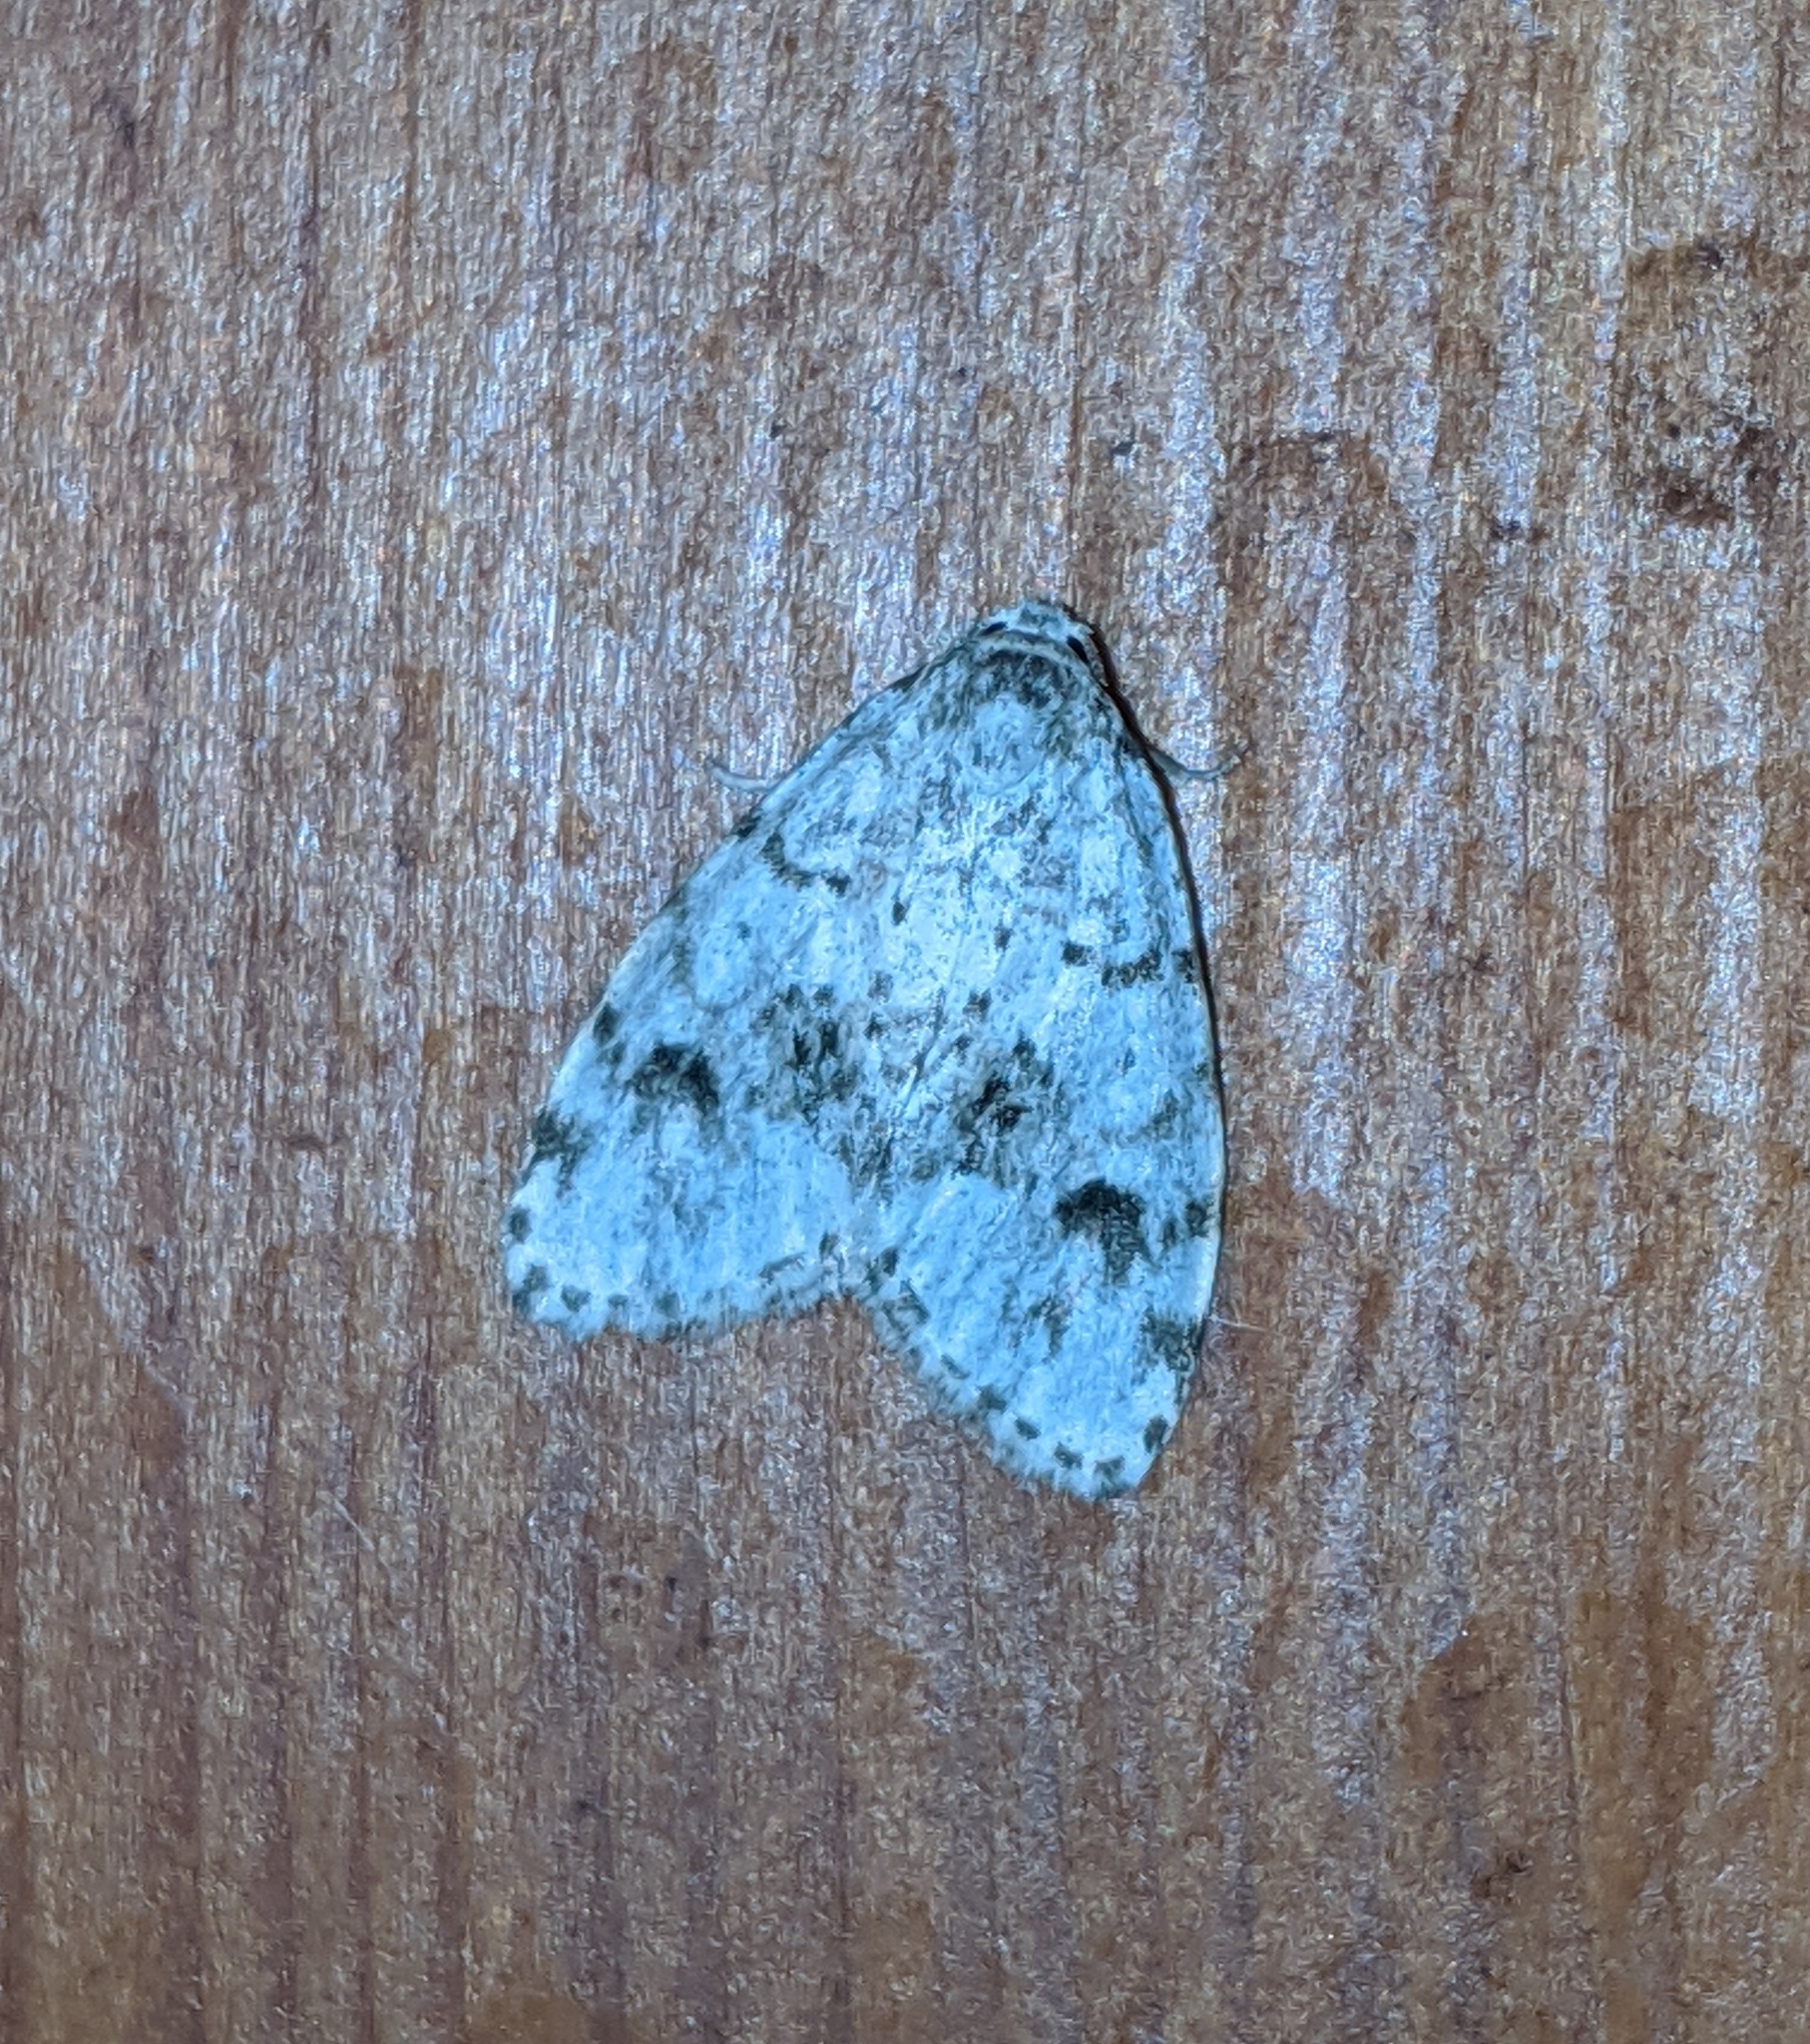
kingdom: Animalia
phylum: Arthropoda
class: Insecta
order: Lepidoptera
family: Erebidae
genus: Clemensia
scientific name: Clemensia umbrata
